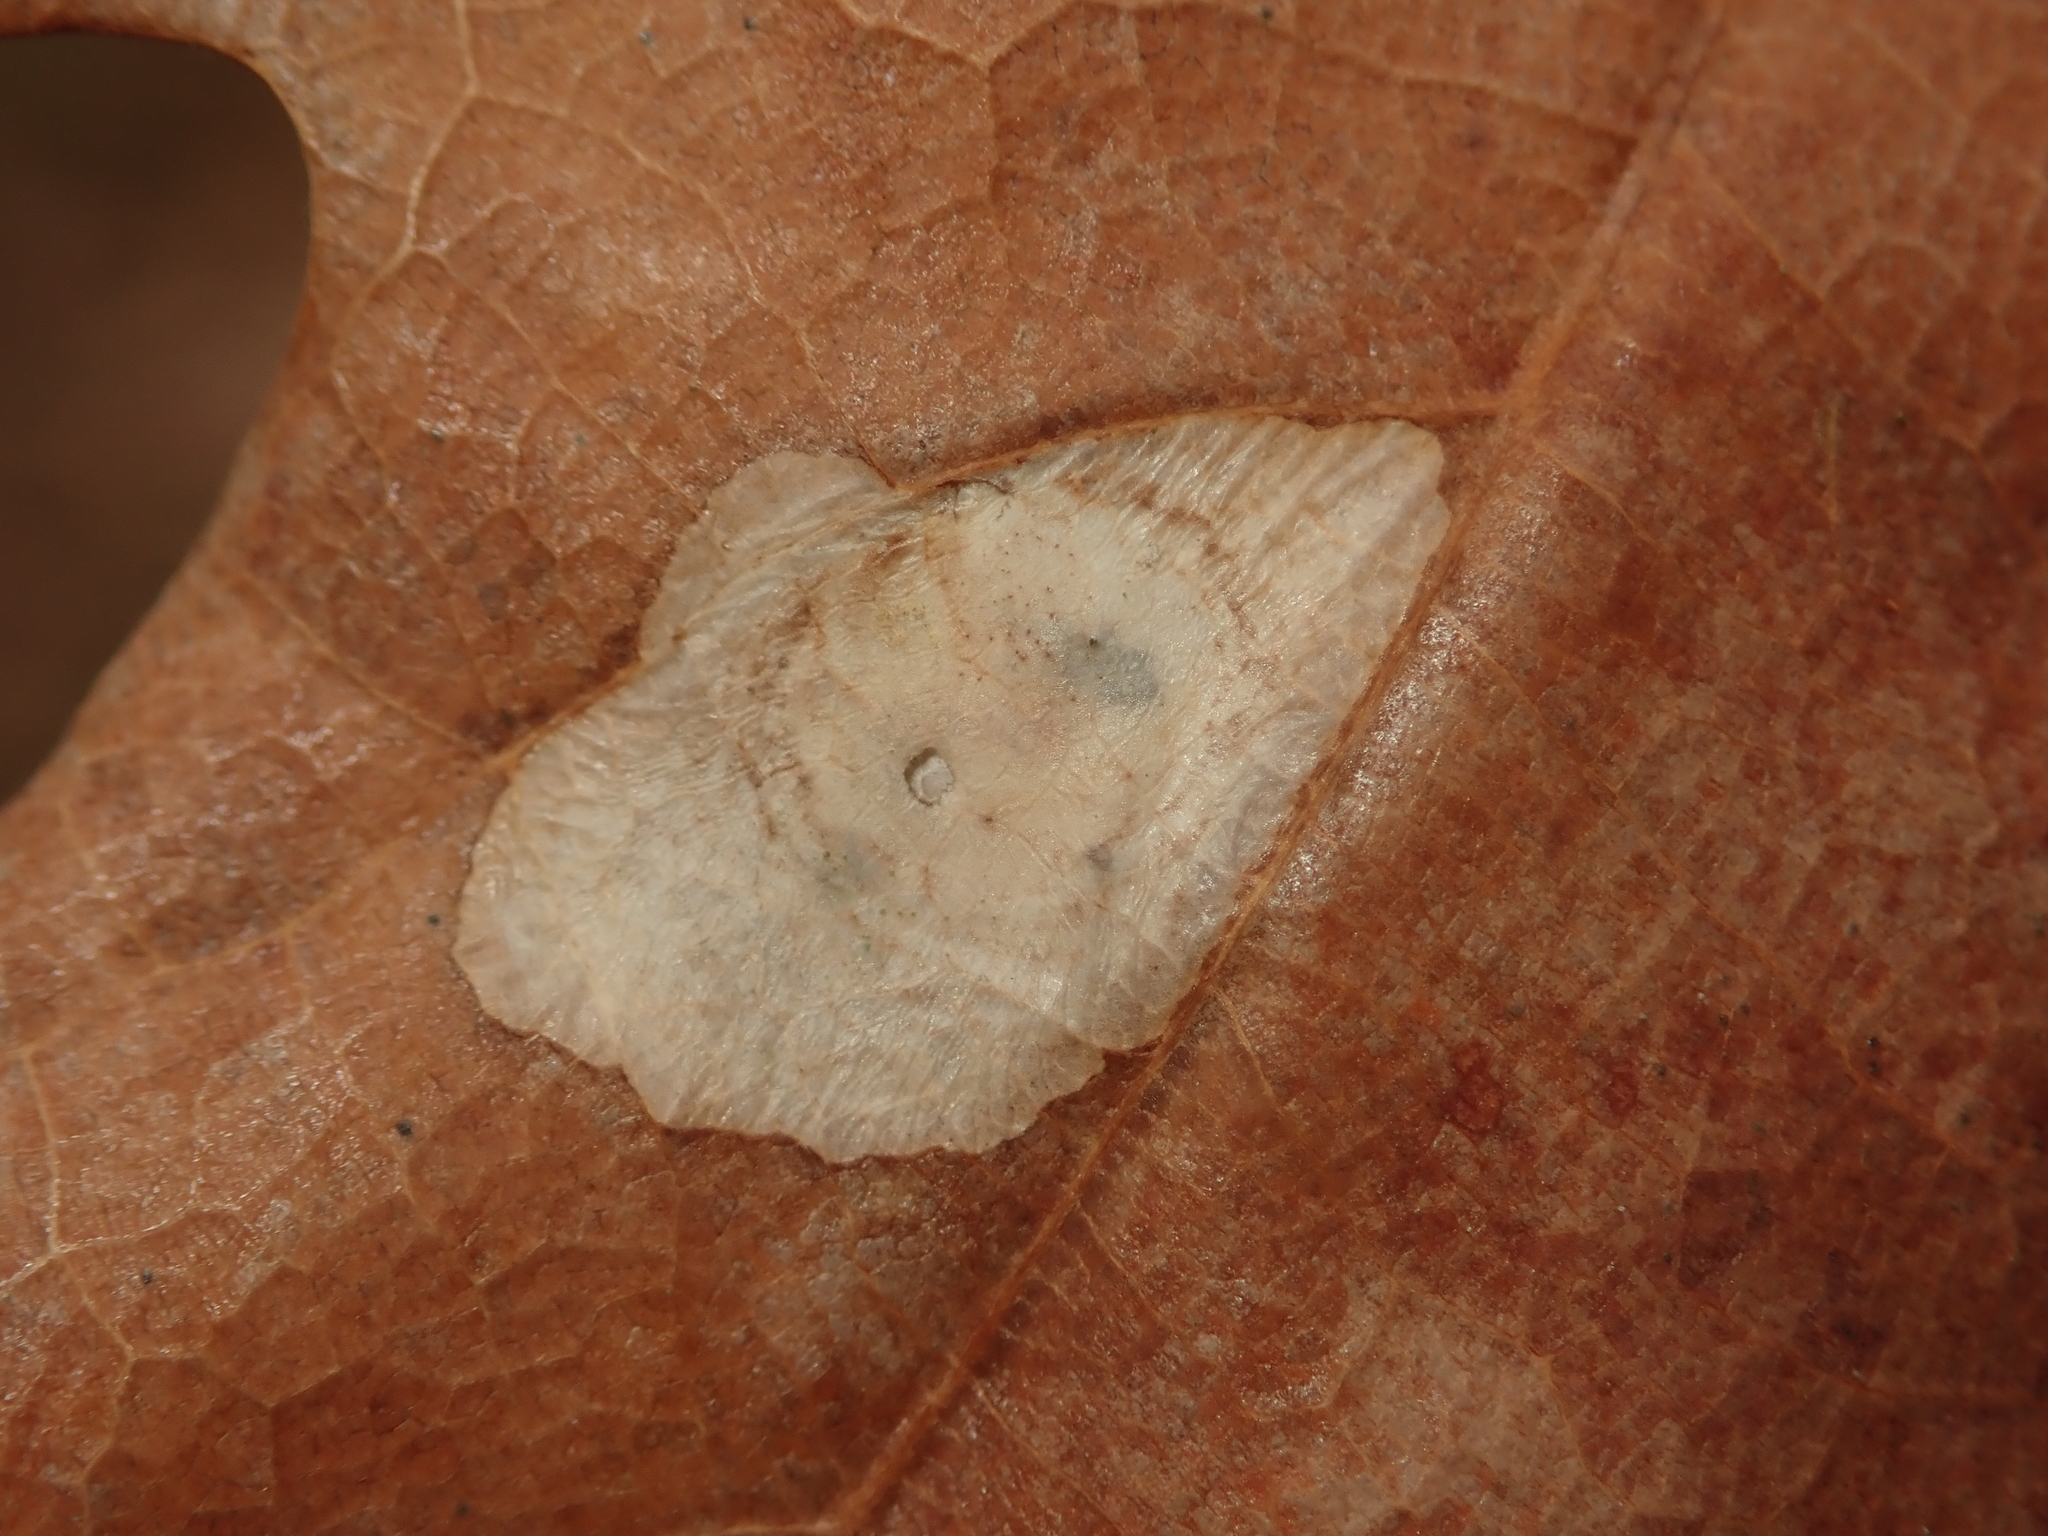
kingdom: Animalia
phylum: Arthropoda
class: Insecta
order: Lepidoptera
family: Tischeriidae
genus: Tischeria
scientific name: Tischeria ekebladella
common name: Oak carl
